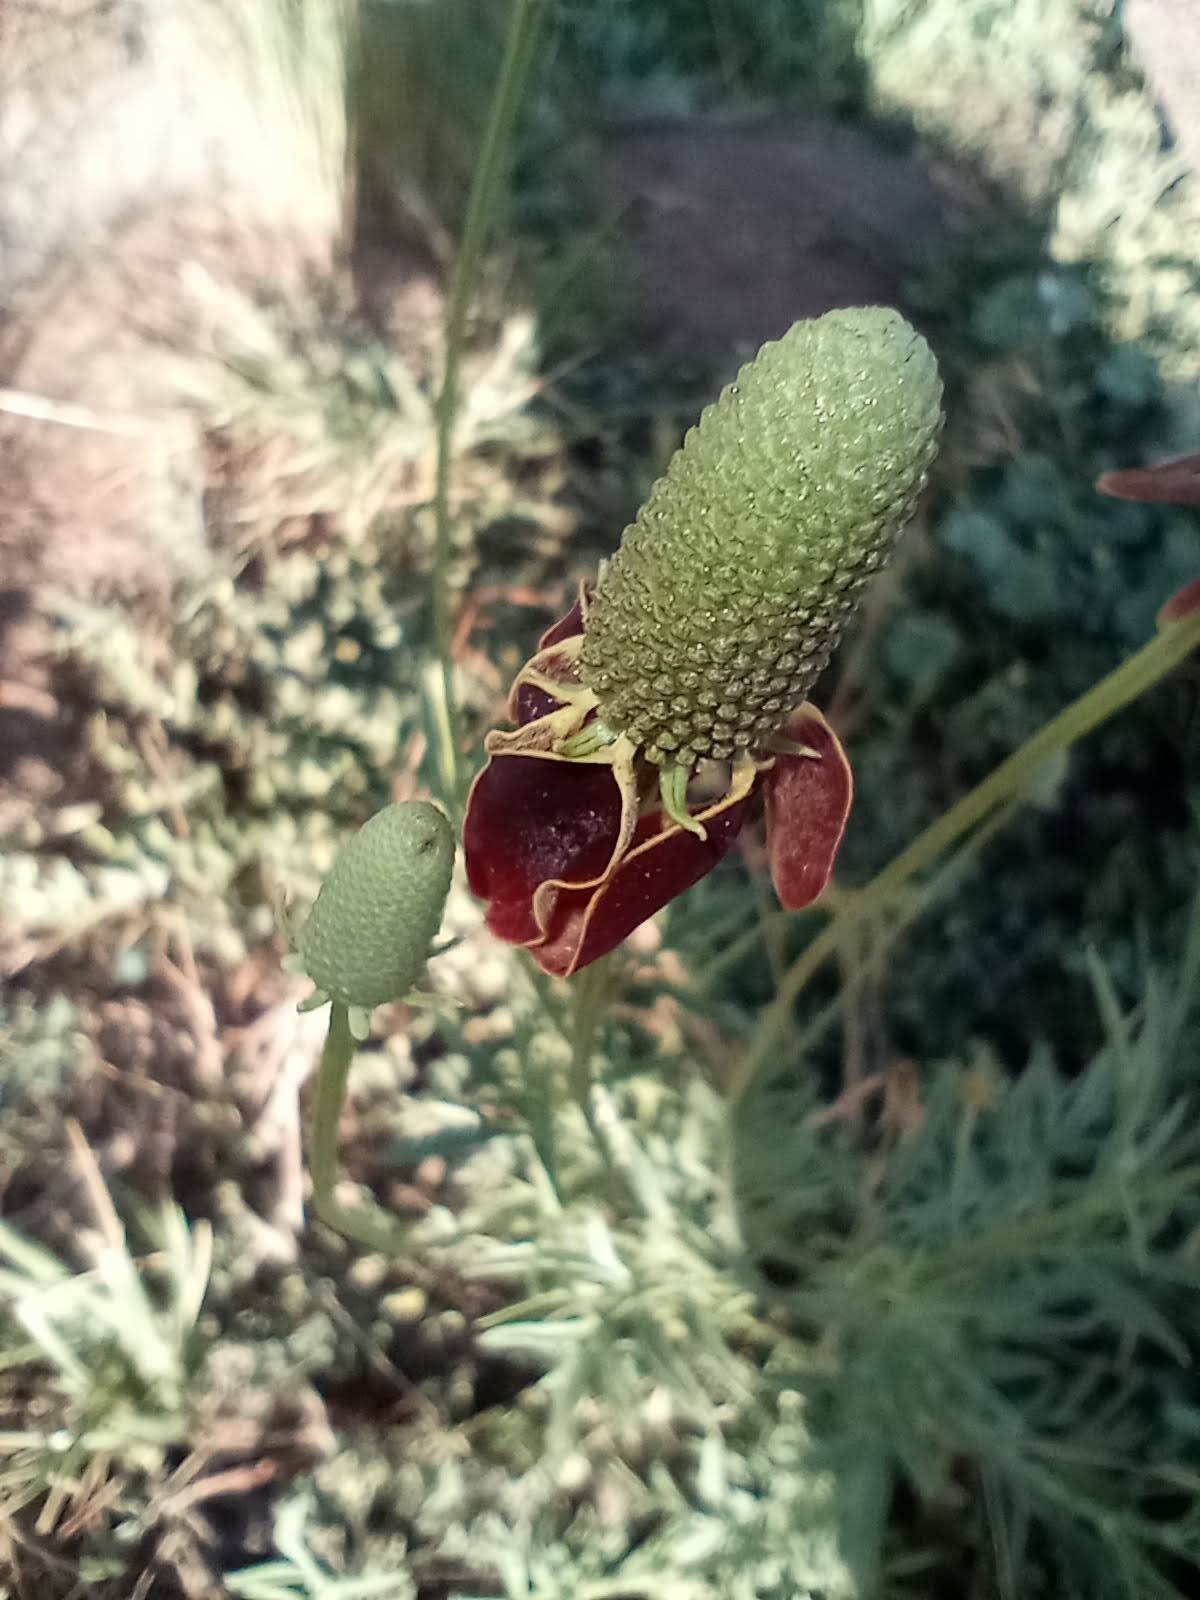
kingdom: Plantae
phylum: Tracheophyta
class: Magnoliopsida
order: Asterales
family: Asteraceae
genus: Ratibida
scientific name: Ratibida columnifera
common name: Prairie coneflower
